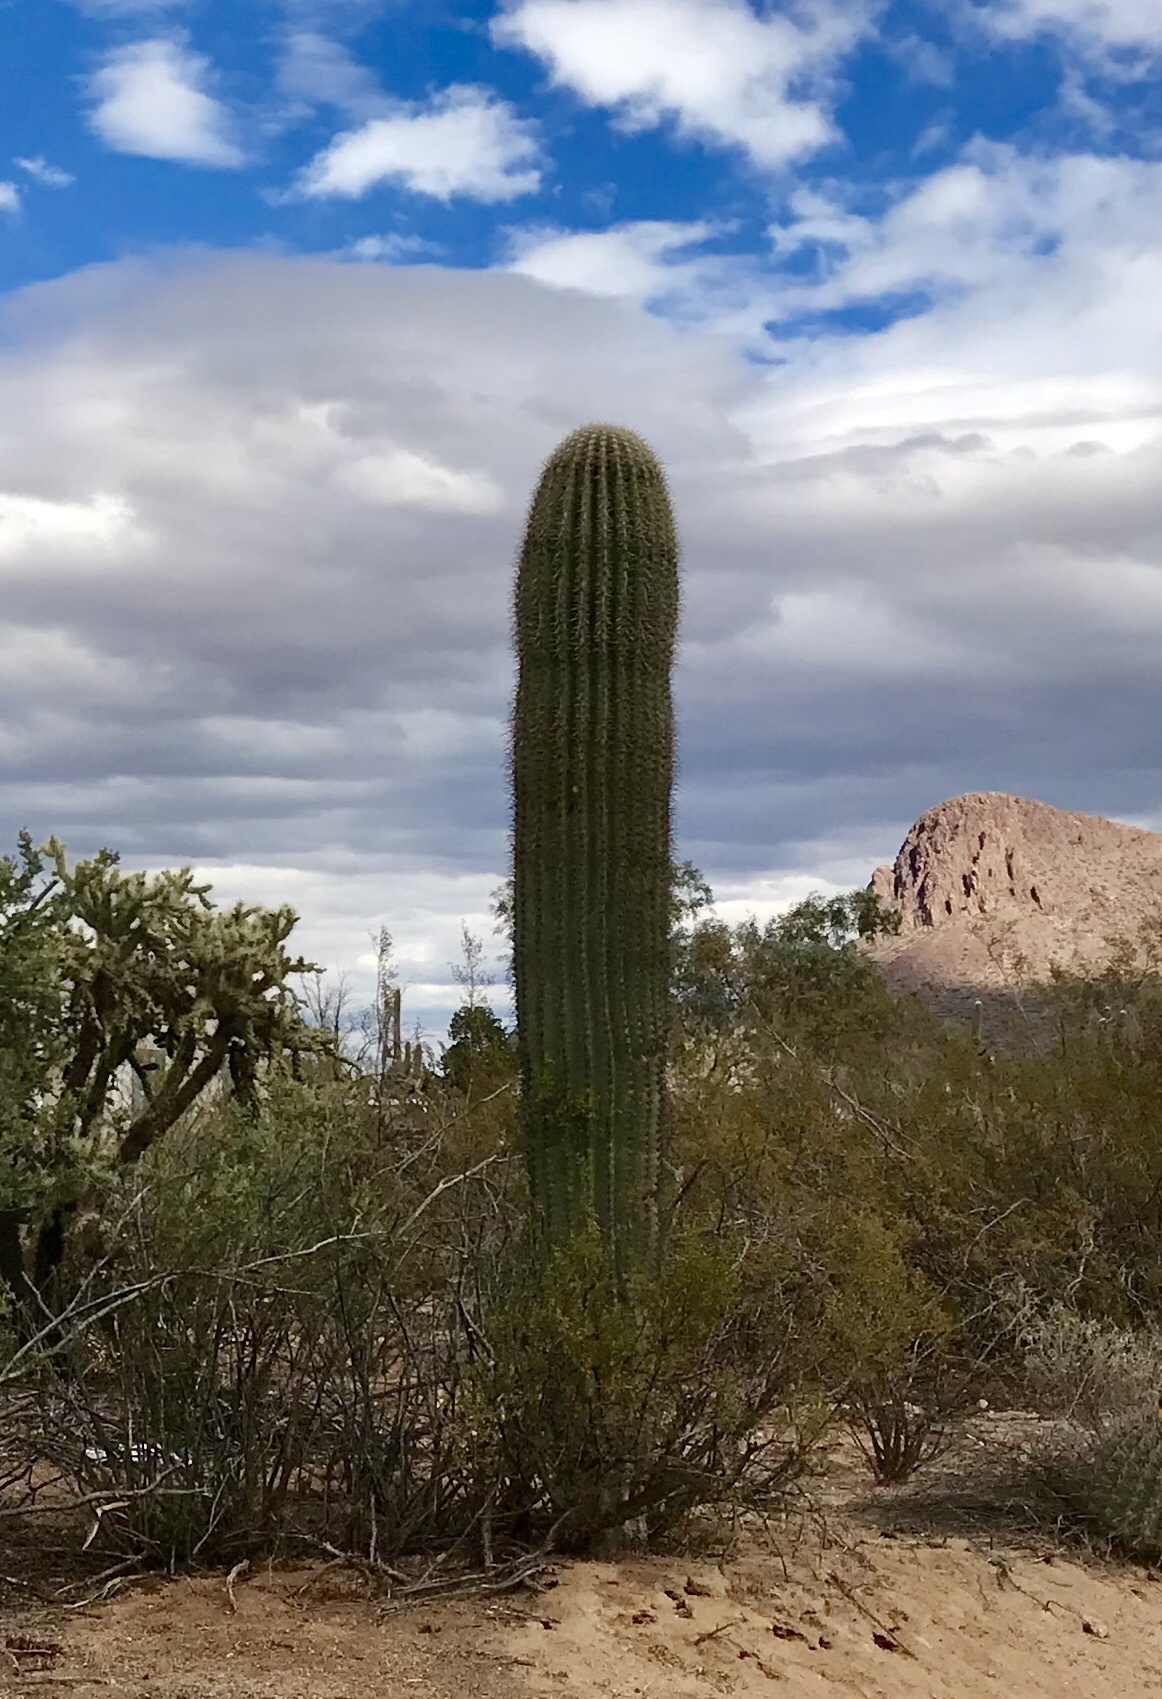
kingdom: Plantae
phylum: Tracheophyta
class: Magnoliopsida
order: Caryophyllales
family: Cactaceae
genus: Carnegiea
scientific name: Carnegiea gigantea
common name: Saguaro
